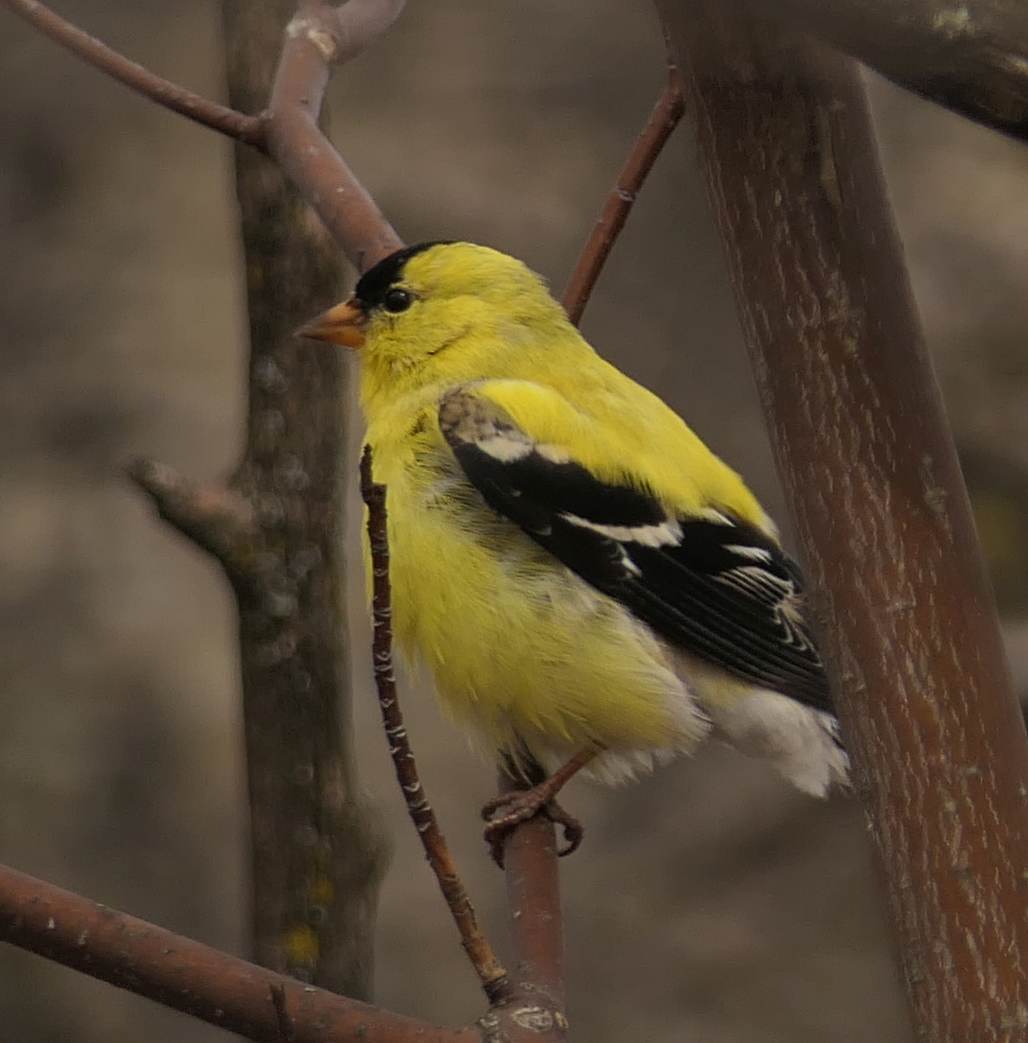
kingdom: Animalia
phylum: Chordata
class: Aves
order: Passeriformes
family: Fringillidae
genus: Spinus
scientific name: Spinus tristis
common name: American goldfinch
